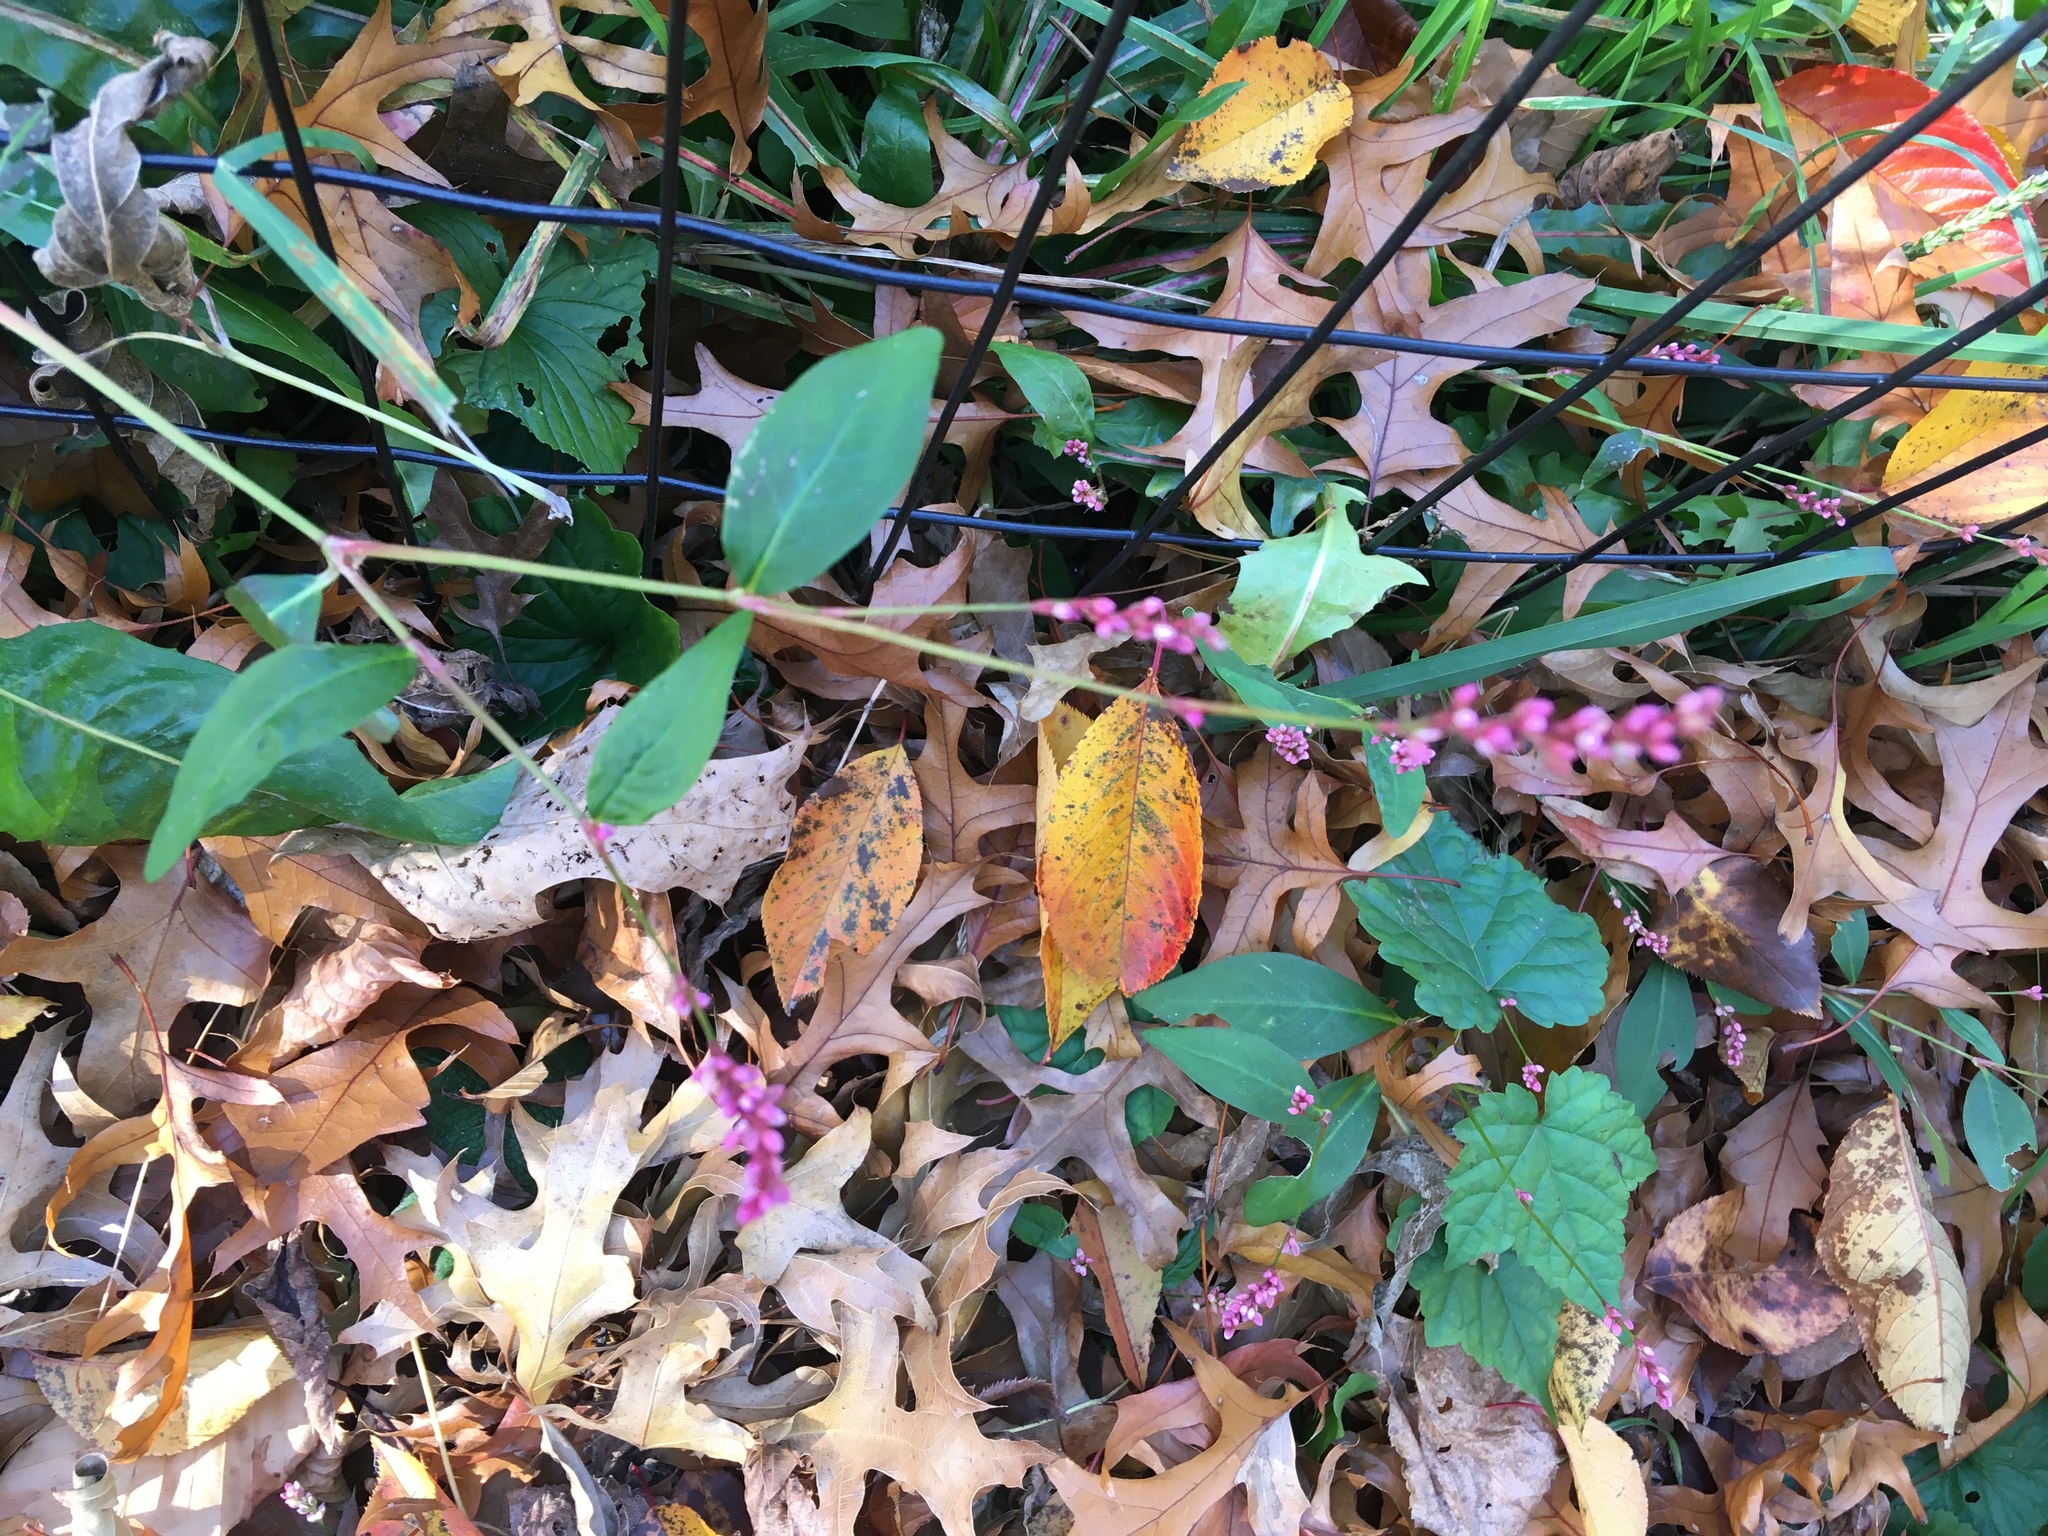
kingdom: Plantae
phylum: Tracheophyta
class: Magnoliopsida
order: Caryophyllales
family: Polygonaceae
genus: Persicaria
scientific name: Persicaria longiseta
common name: Bristly lady's-thumb
